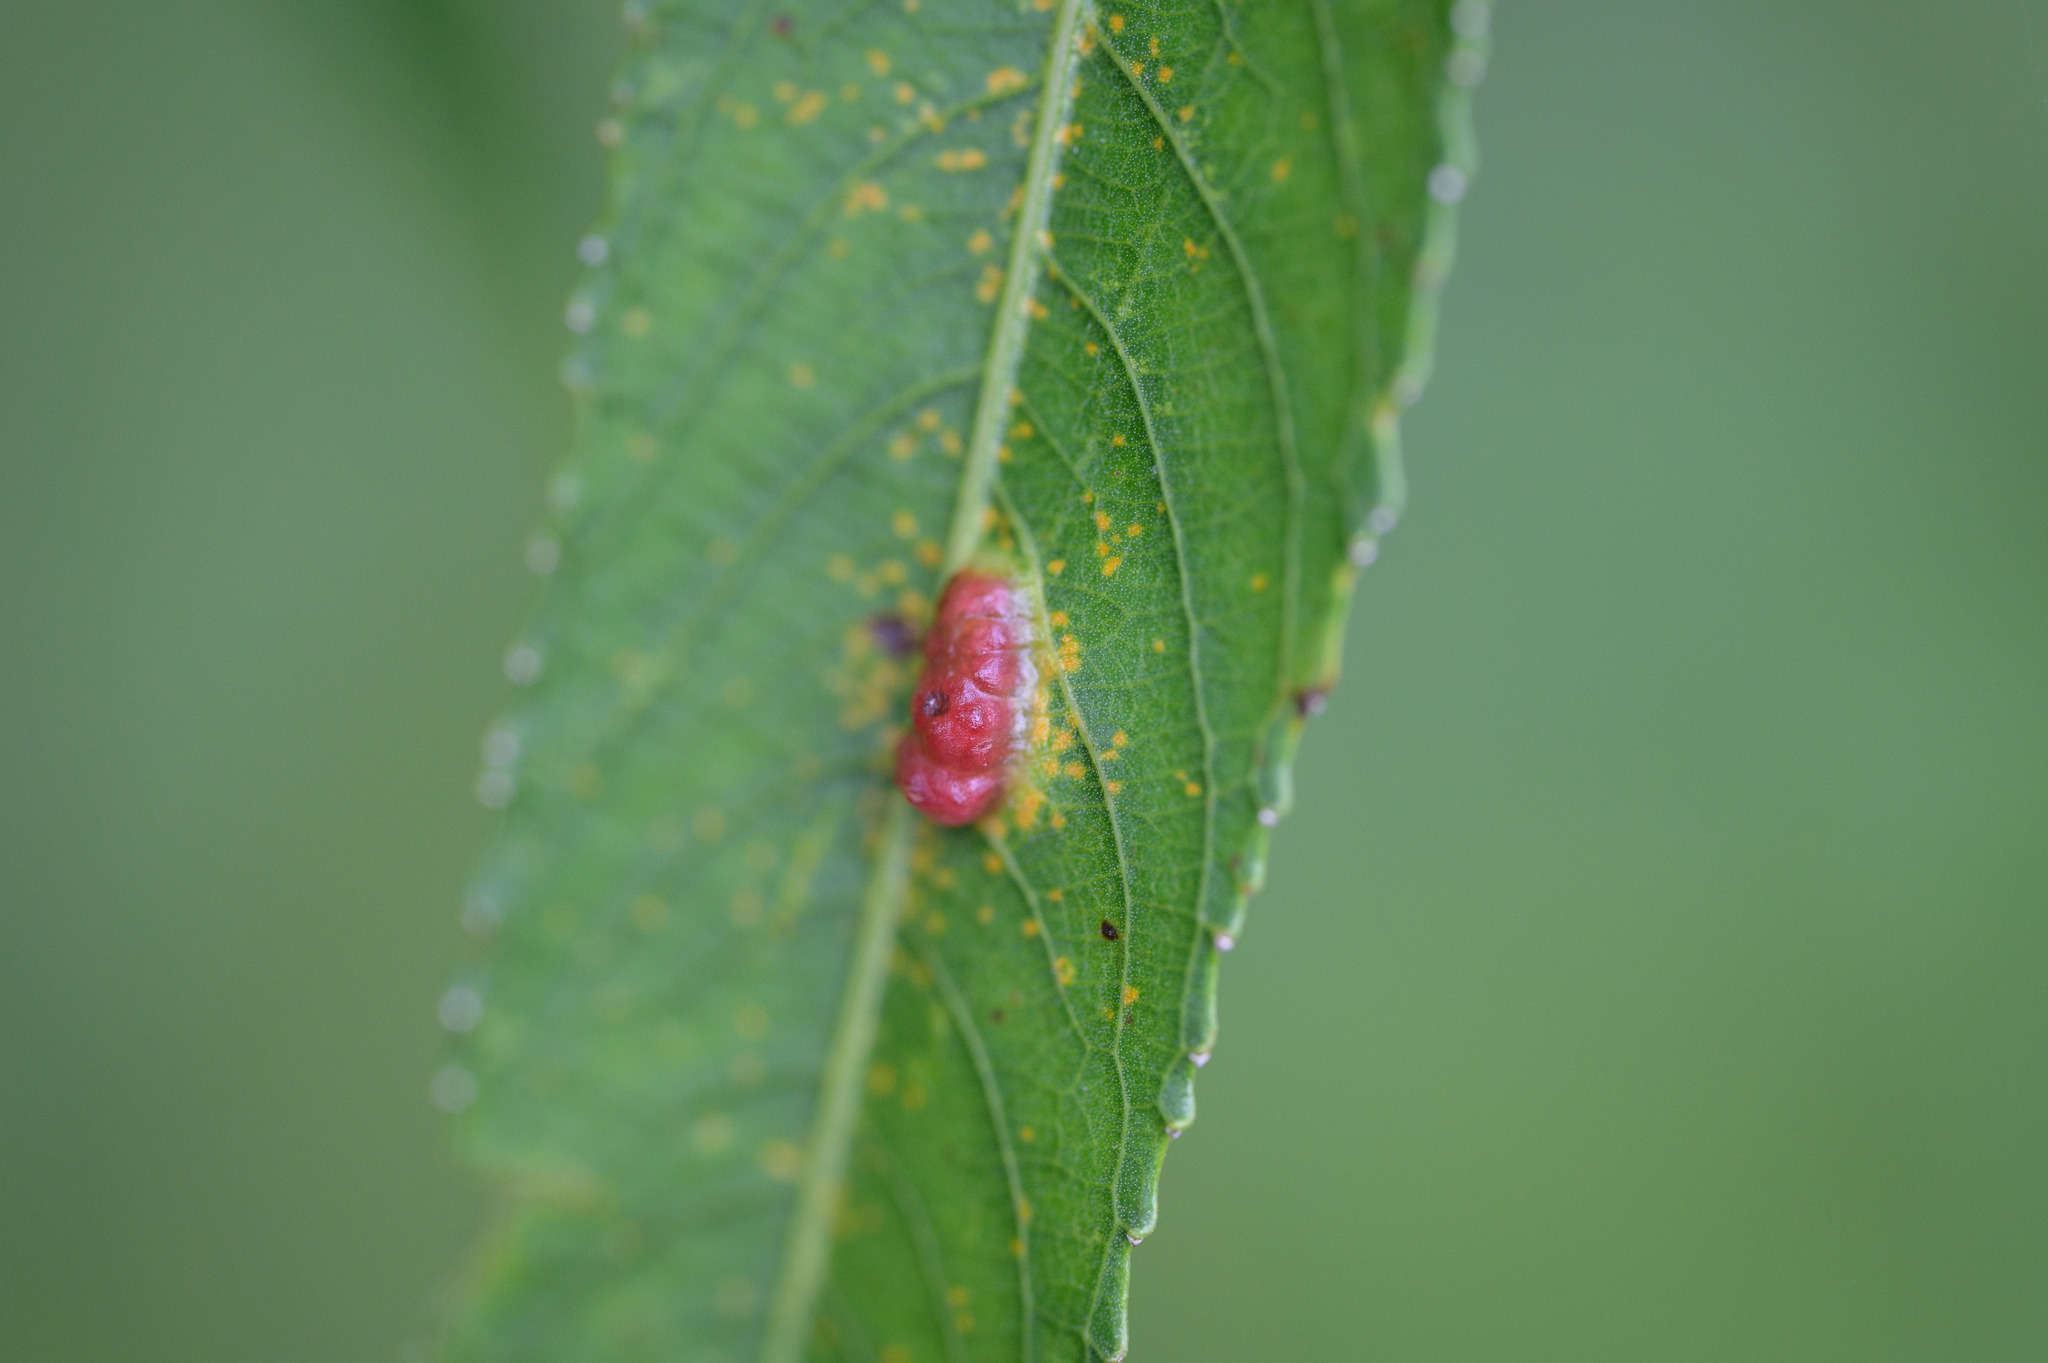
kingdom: Animalia
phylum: Arthropoda
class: Insecta
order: Hymenoptera
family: Tenthredinidae
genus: Pontania
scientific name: Pontania proxima
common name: Common sawfly
